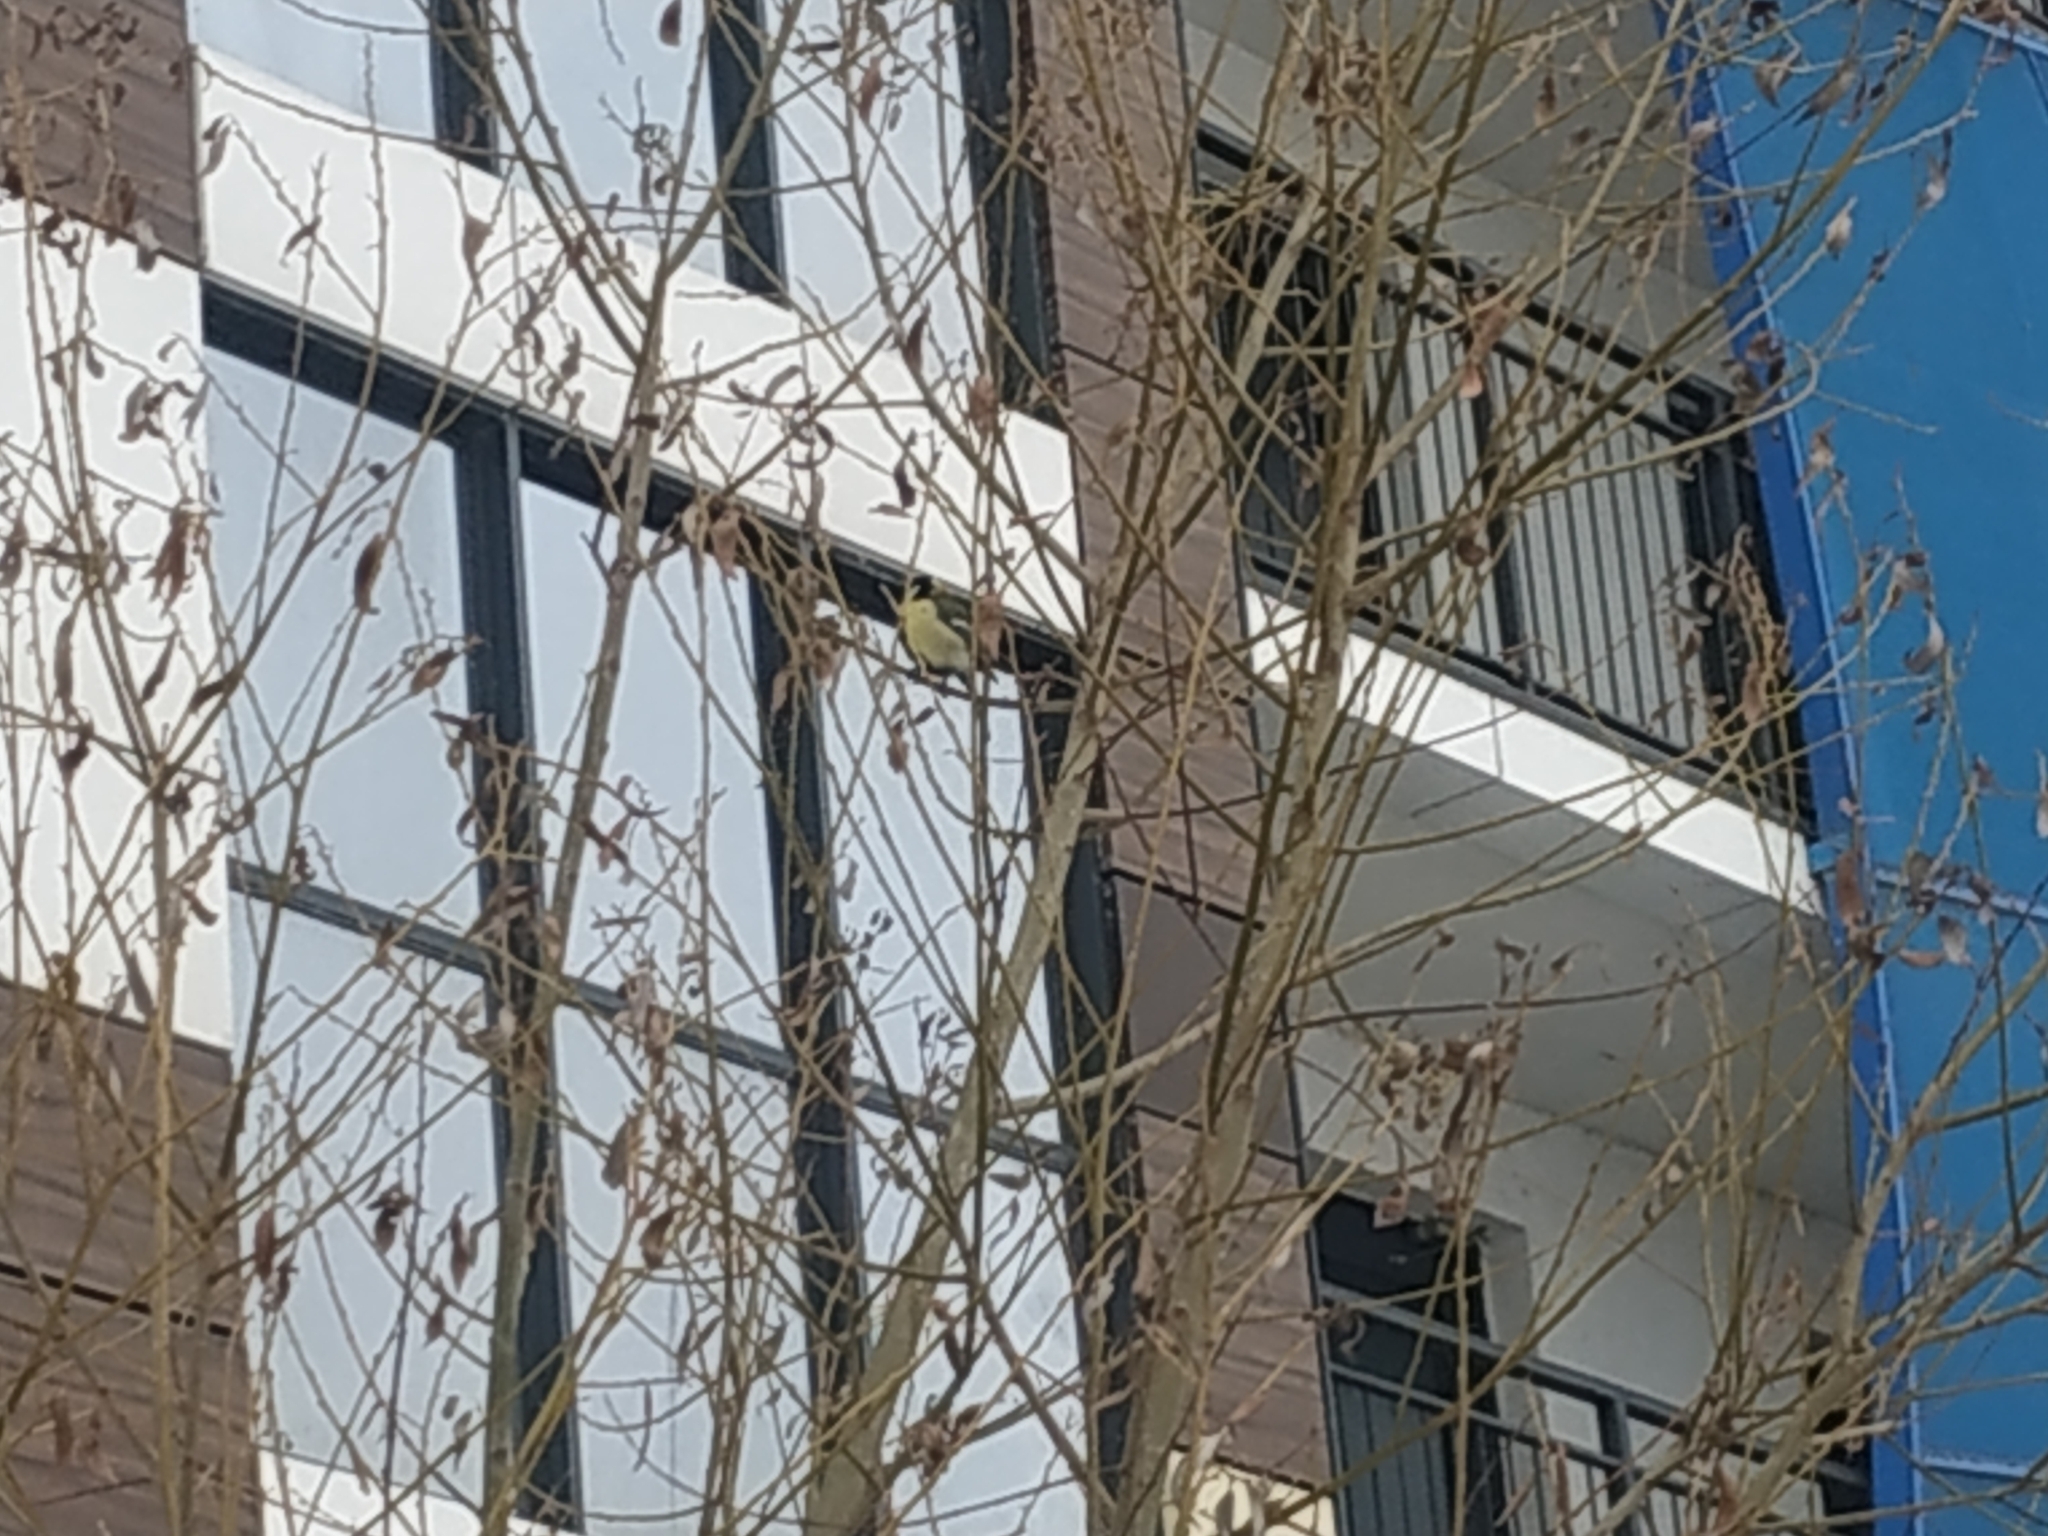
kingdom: Animalia
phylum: Chordata
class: Aves
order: Passeriformes
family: Paridae
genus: Parus
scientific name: Parus major
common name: Great tit
